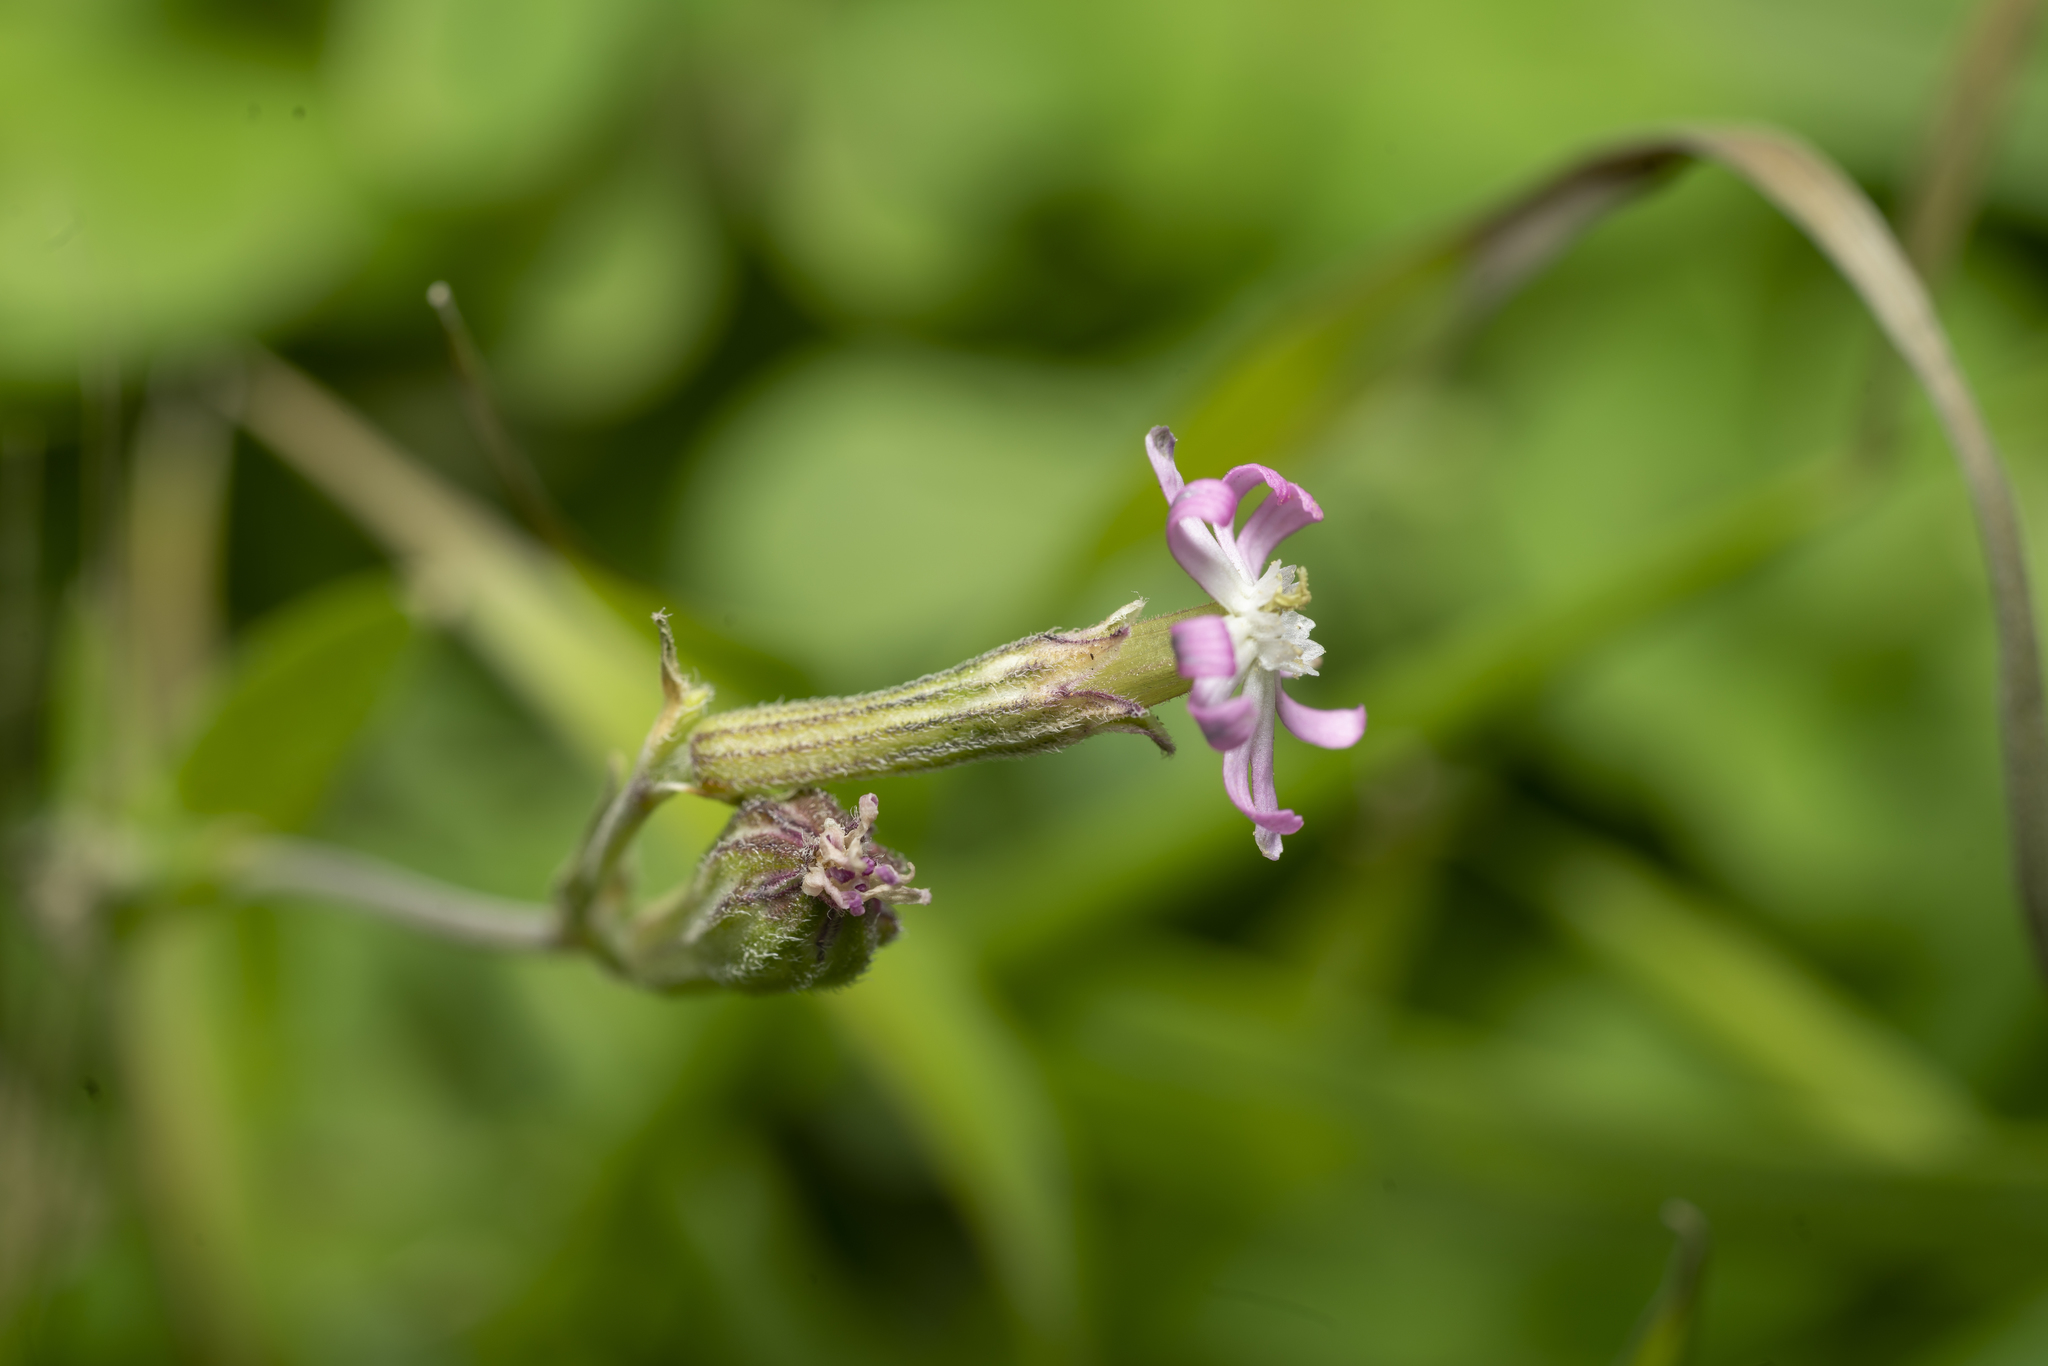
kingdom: Plantae
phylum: Tracheophyta
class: Magnoliopsida
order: Caryophyllales
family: Caryophyllaceae
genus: Silene
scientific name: Silene colorata
